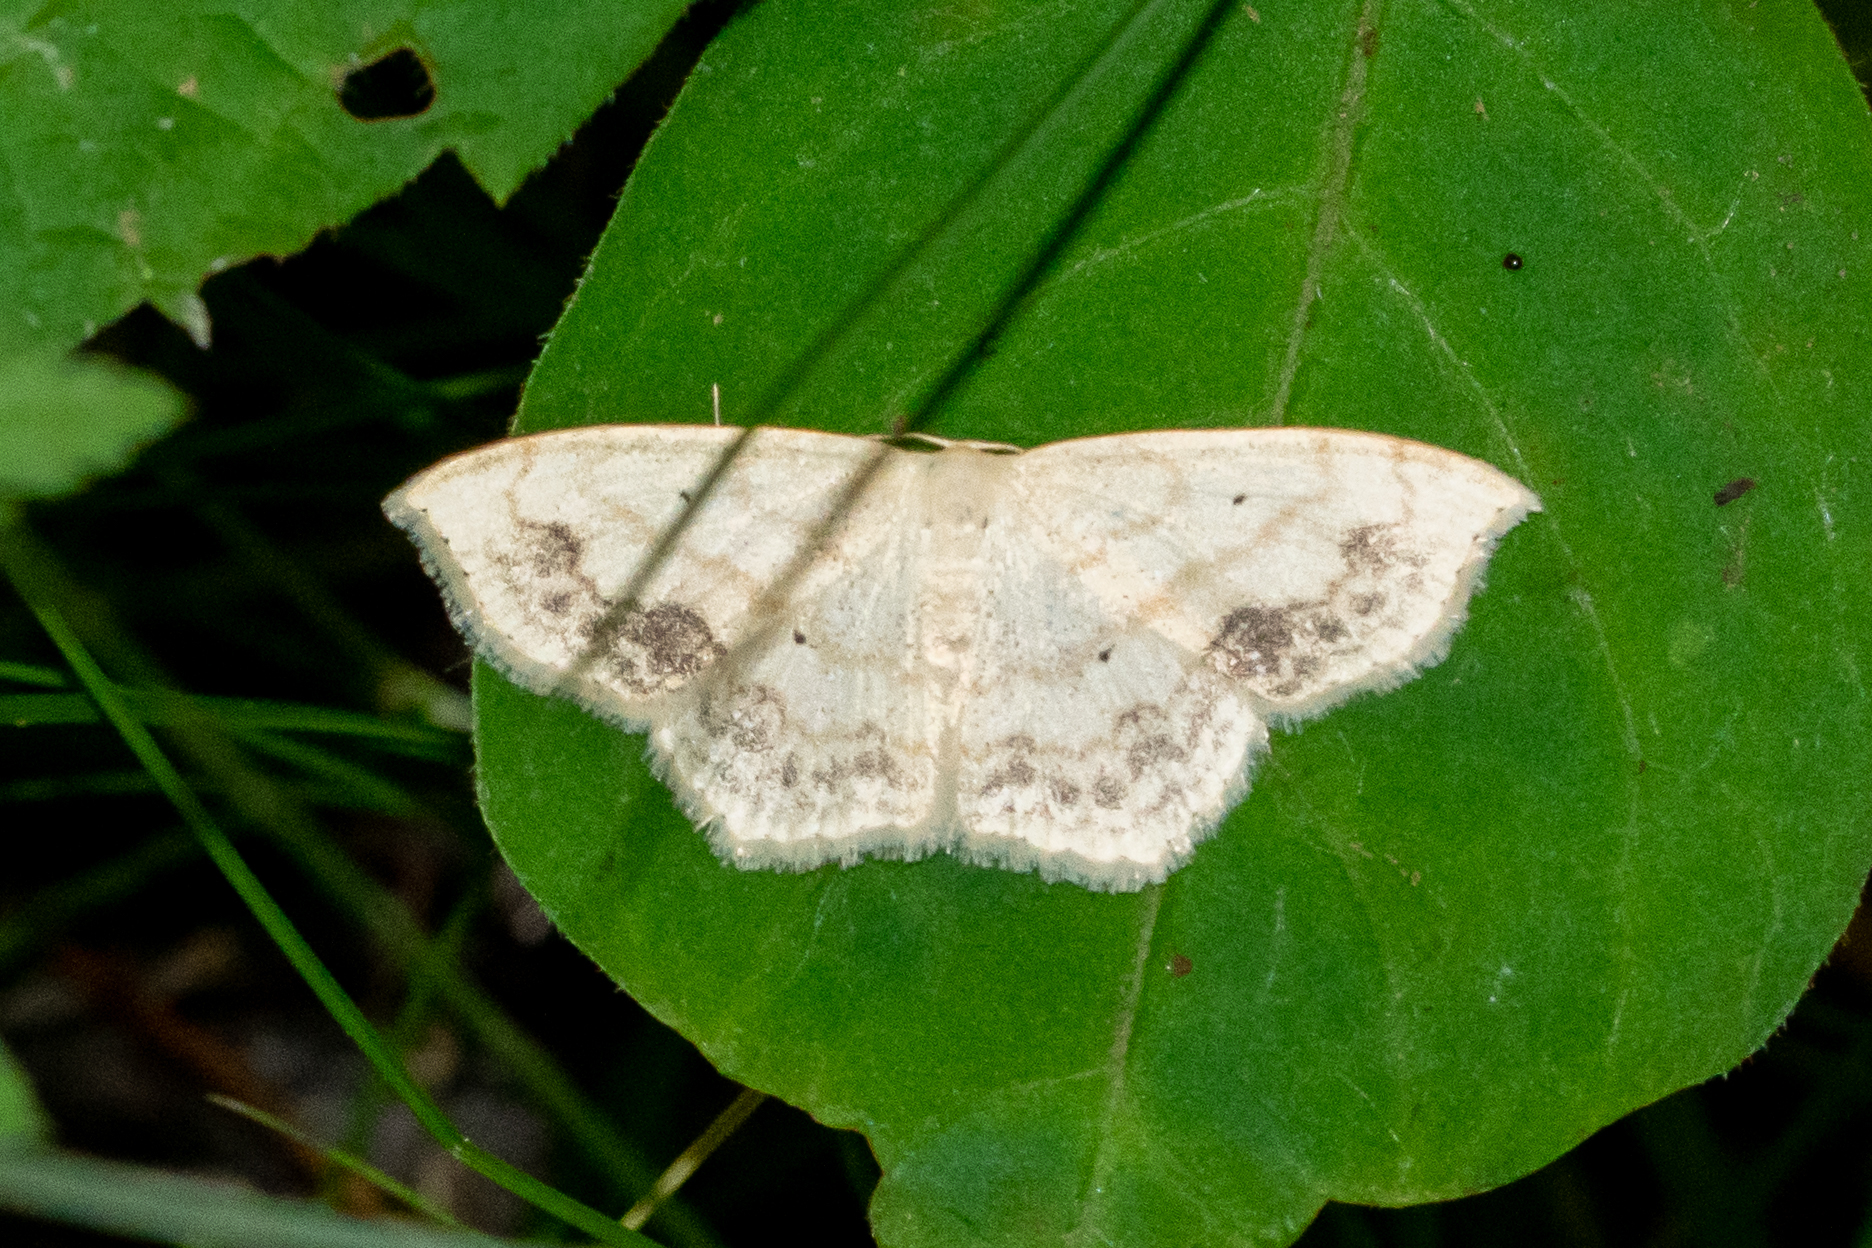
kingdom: Animalia
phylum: Arthropoda
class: Insecta
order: Lepidoptera
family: Geometridae
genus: Scopula
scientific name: Scopula limboundata
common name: Large lace border
